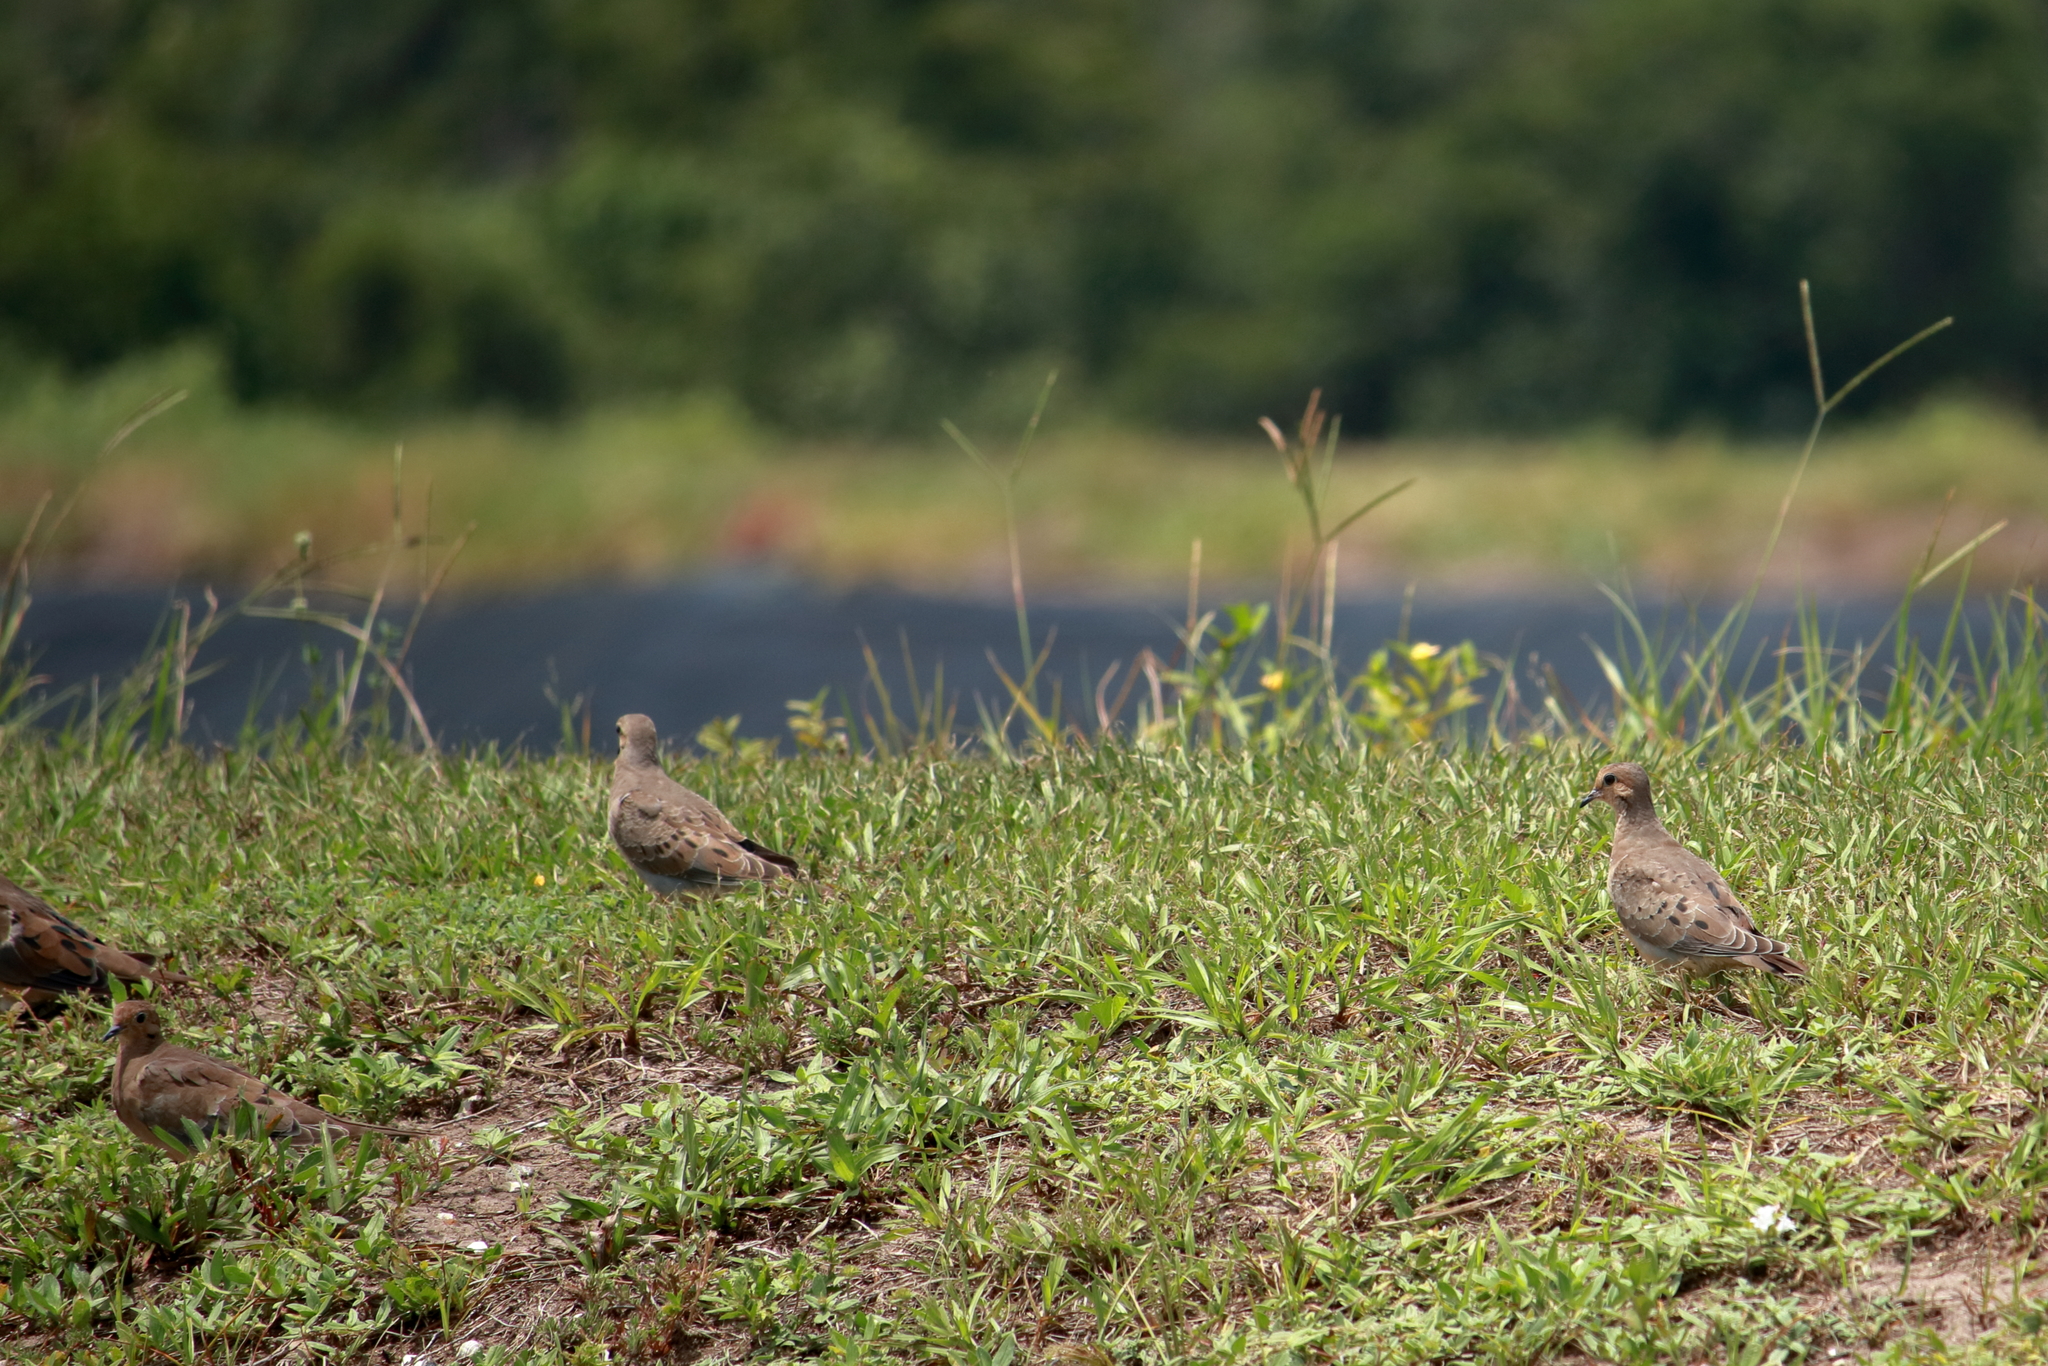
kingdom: Animalia
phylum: Chordata
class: Aves
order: Columbiformes
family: Columbidae
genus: Zenaida
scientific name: Zenaida macroura
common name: Mourning dove
